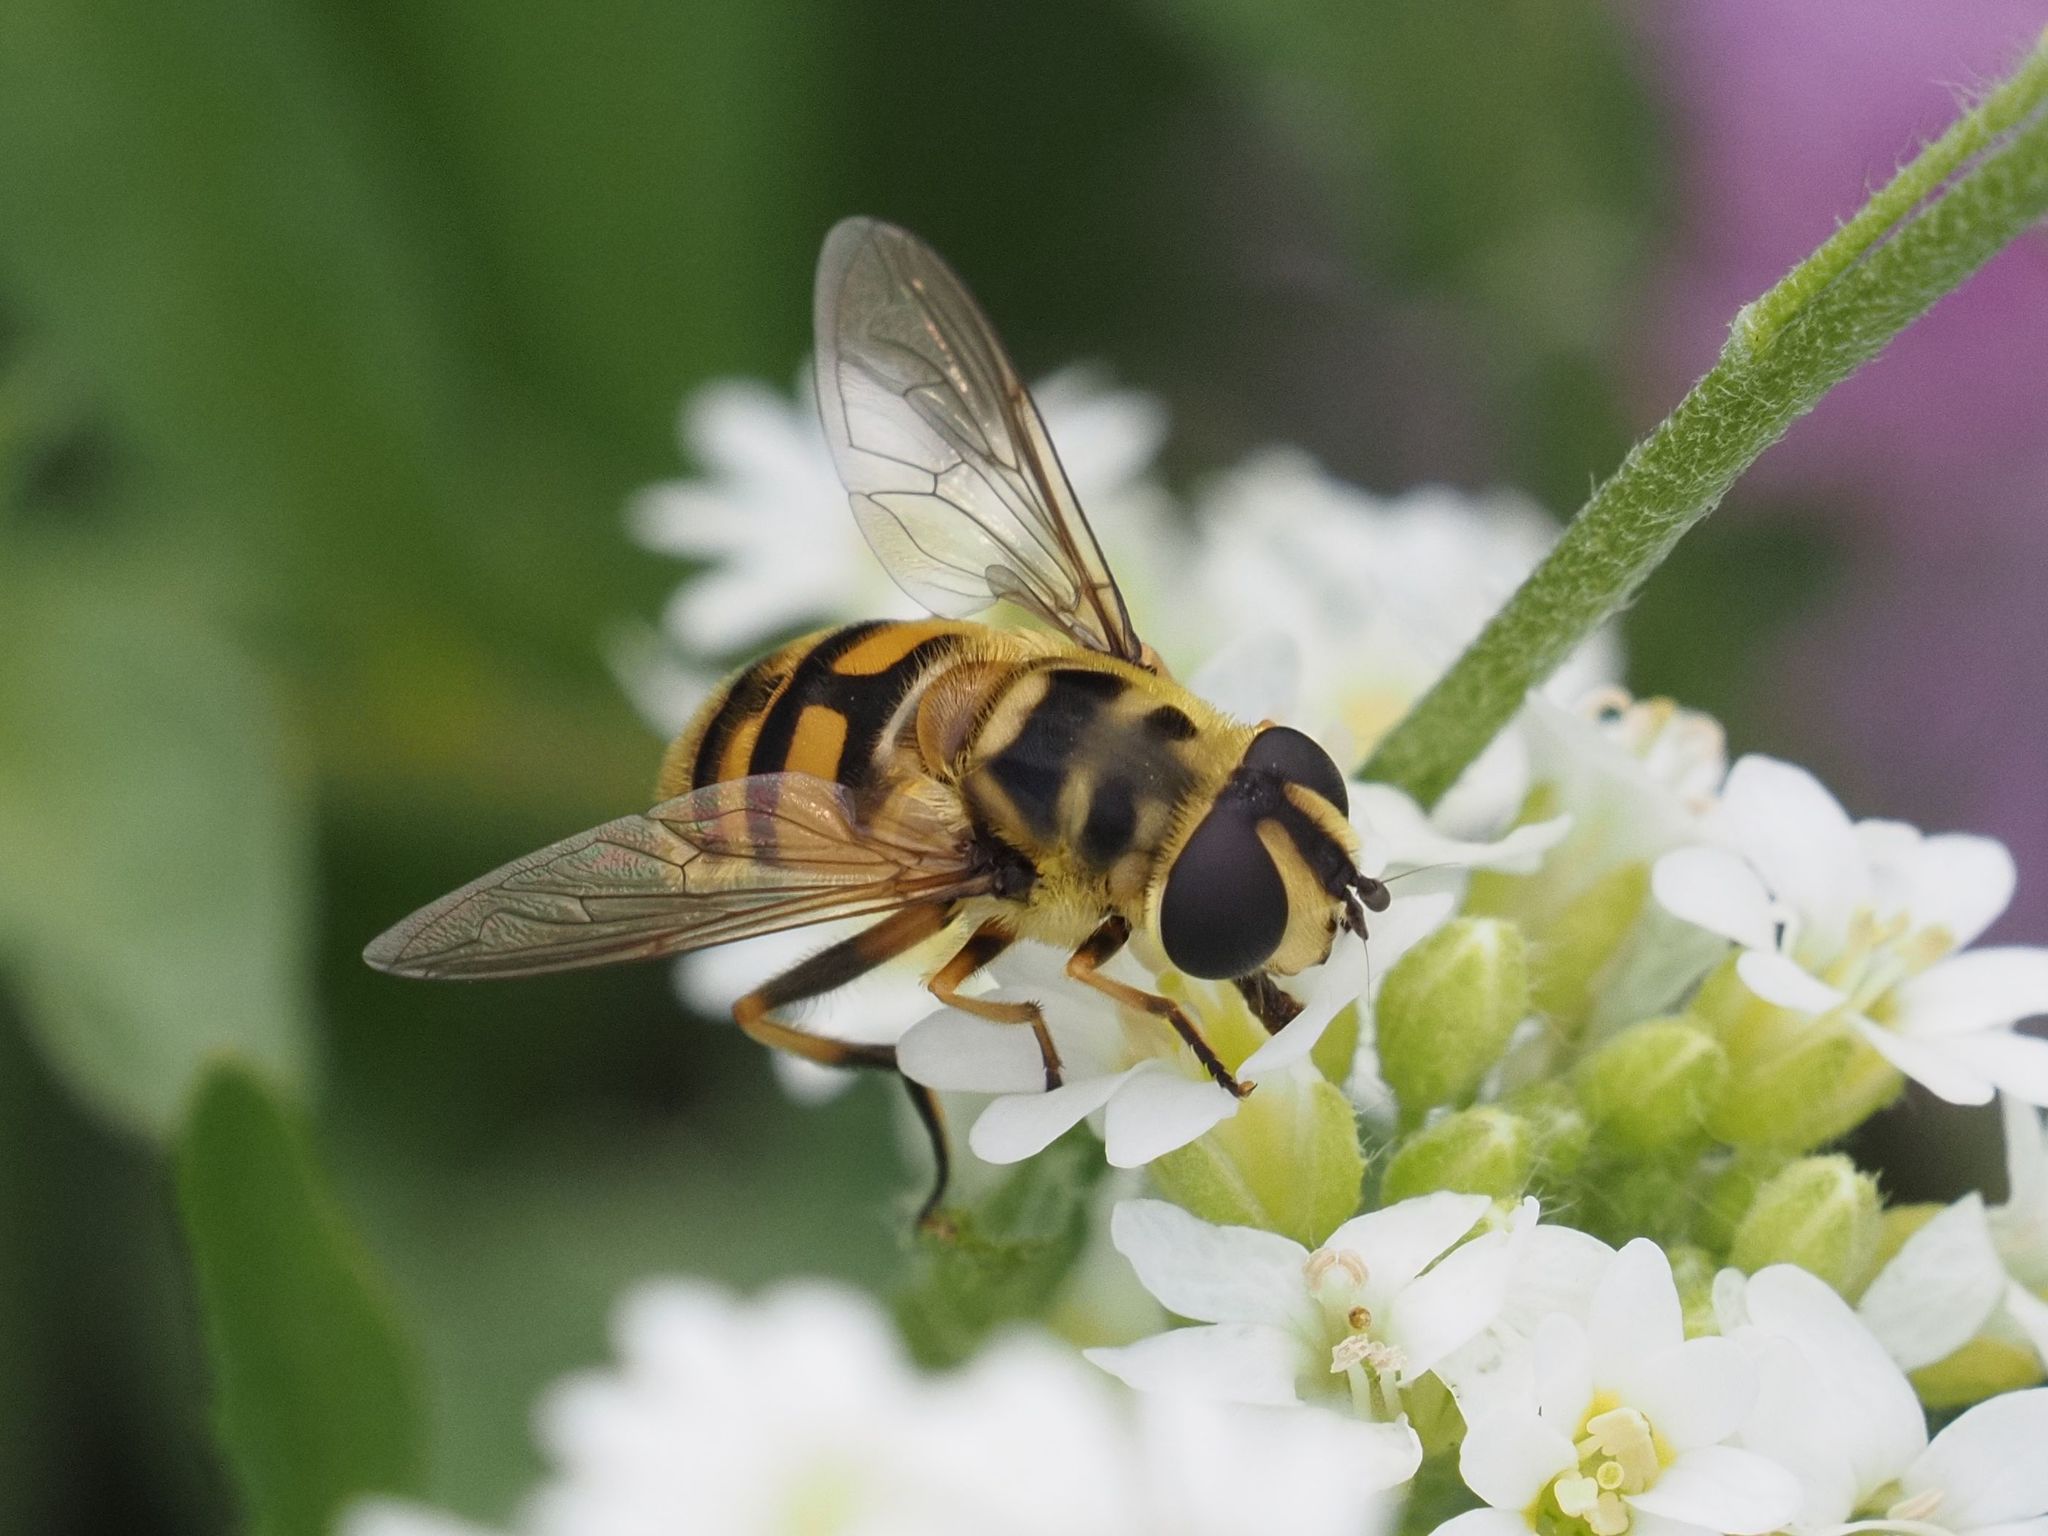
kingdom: Animalia
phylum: Arthropoda
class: Insecta
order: Diptera
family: Syrphidae
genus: Myathropa
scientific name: Myathropa florea
